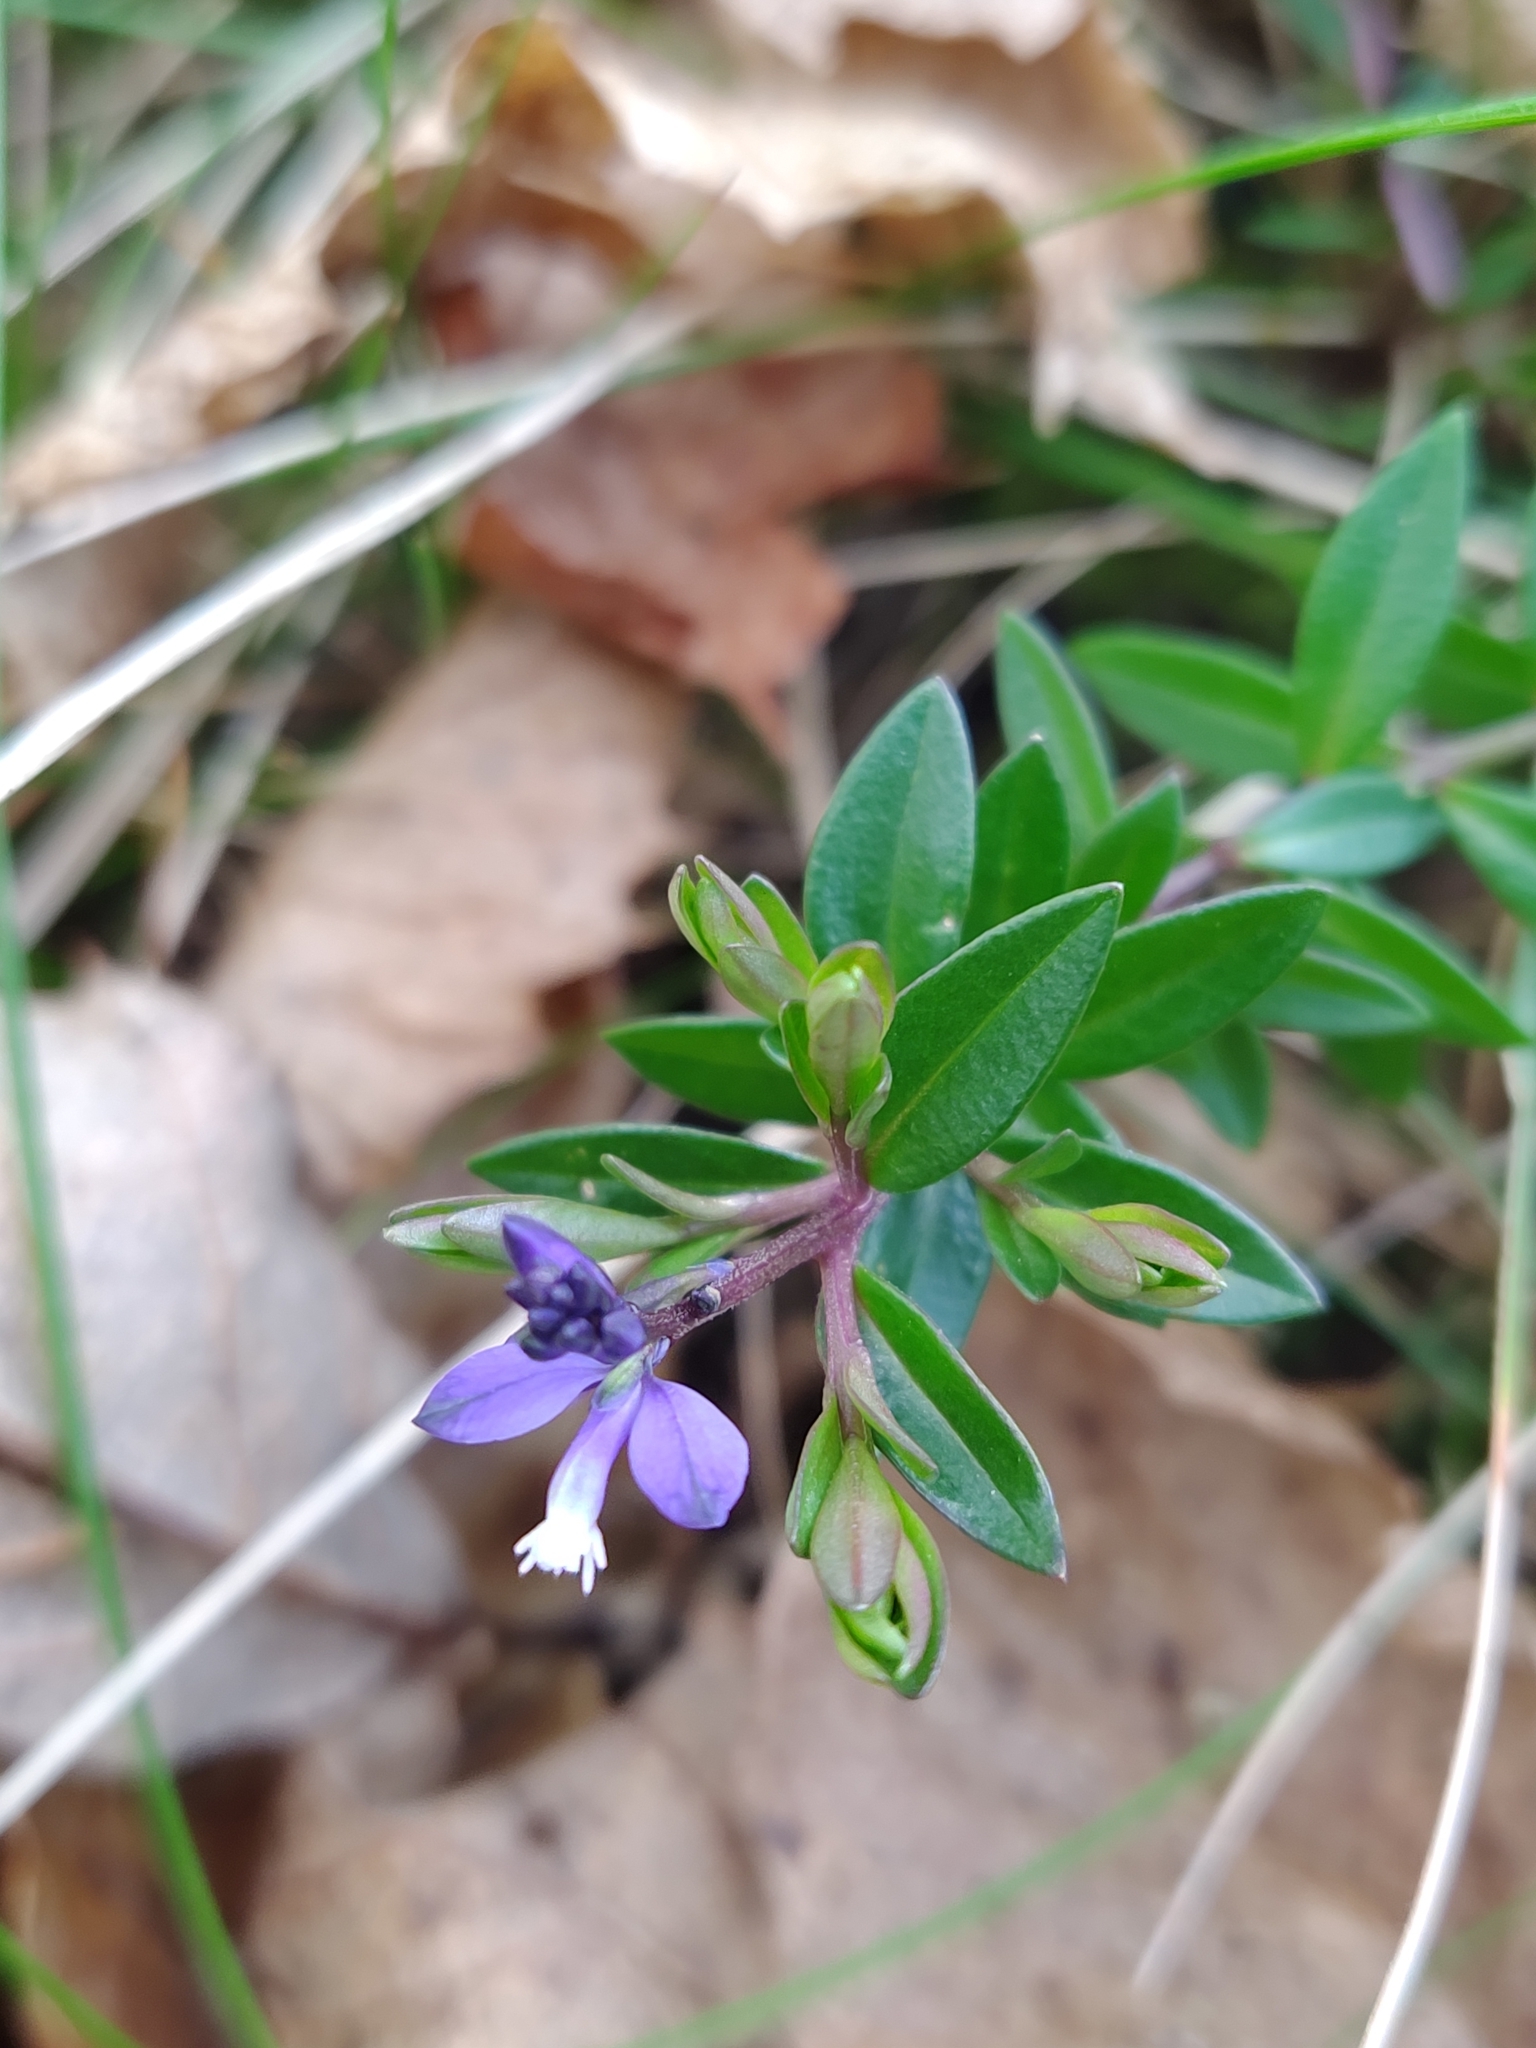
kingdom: Plantae
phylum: Tracheophyta
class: Magnoliopsida
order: Fabales
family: Polygalaceae
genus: Polygala
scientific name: Polygala vulgaris
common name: Common milkwort
